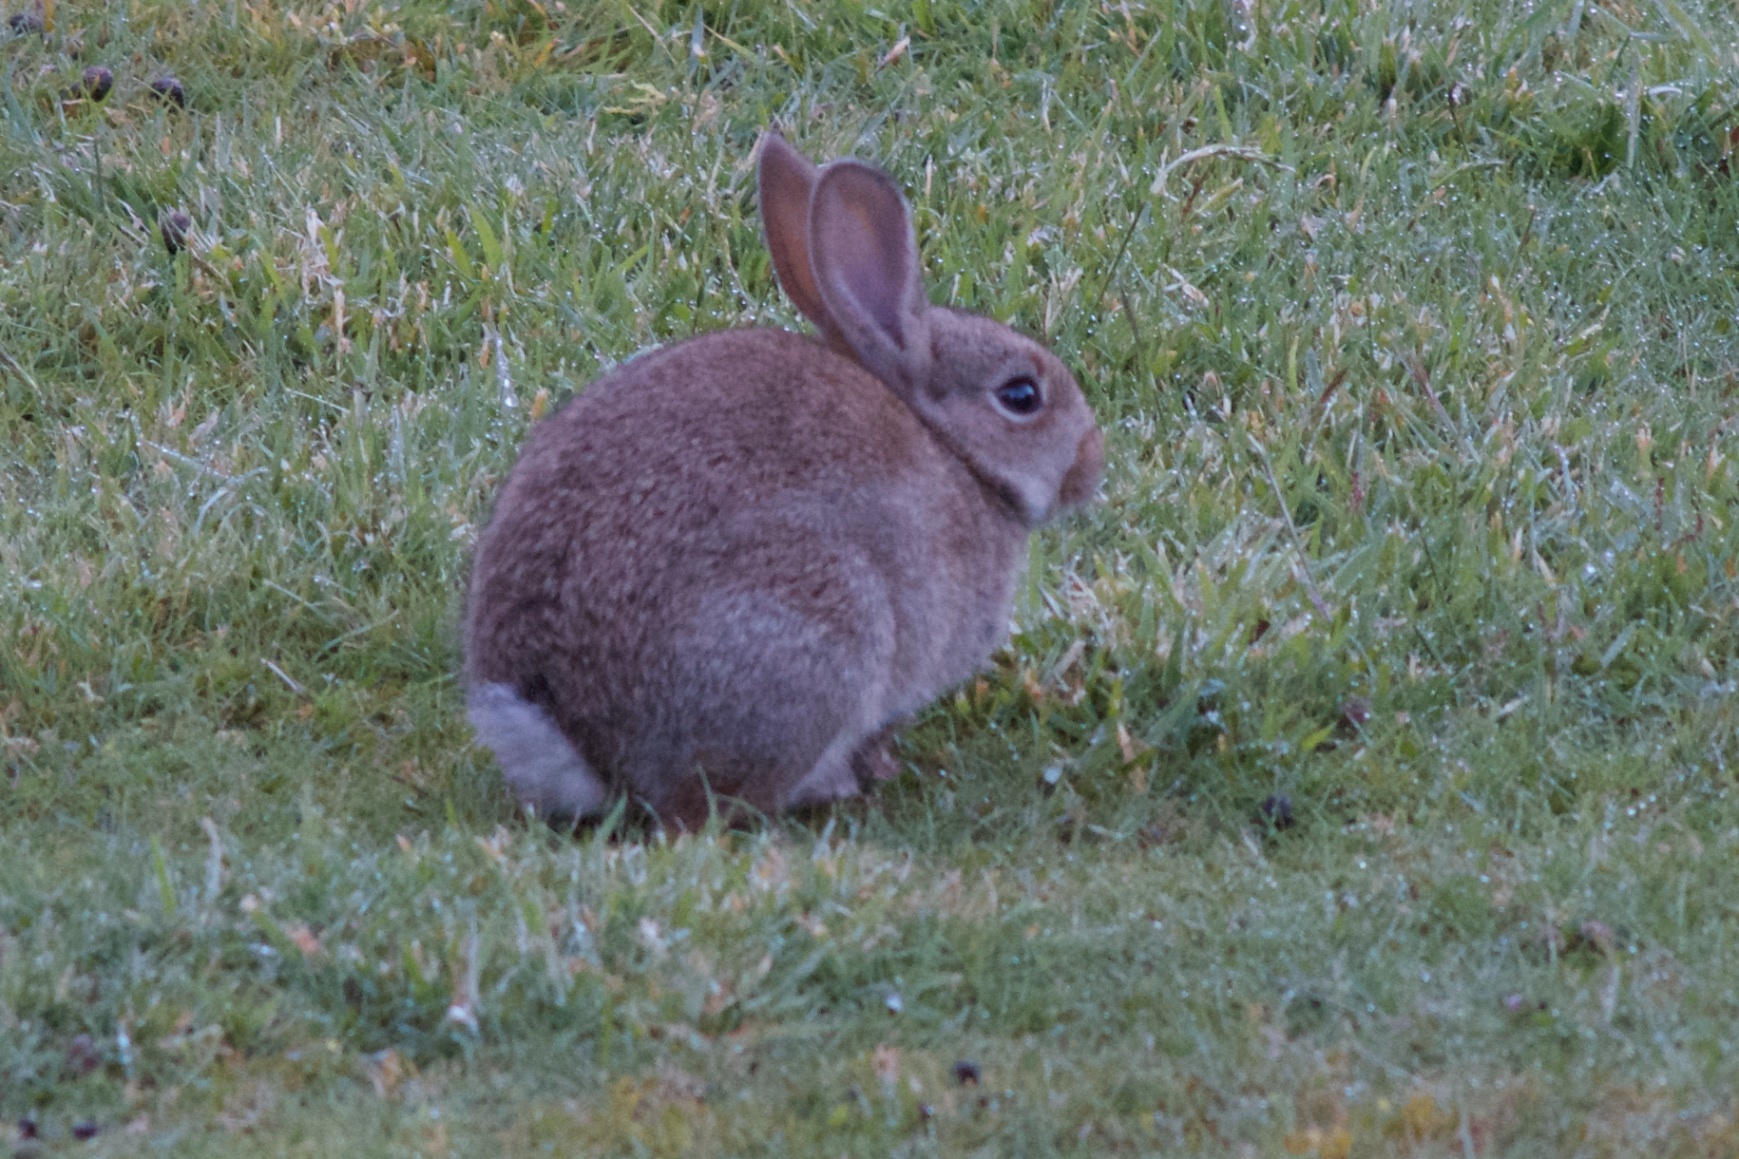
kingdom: Animalia
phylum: Chordata
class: Mammalia
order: Lagomorpha
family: Leporidae
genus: Oryctolagus
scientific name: Oryctolagus cuniculus
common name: European rabbit
